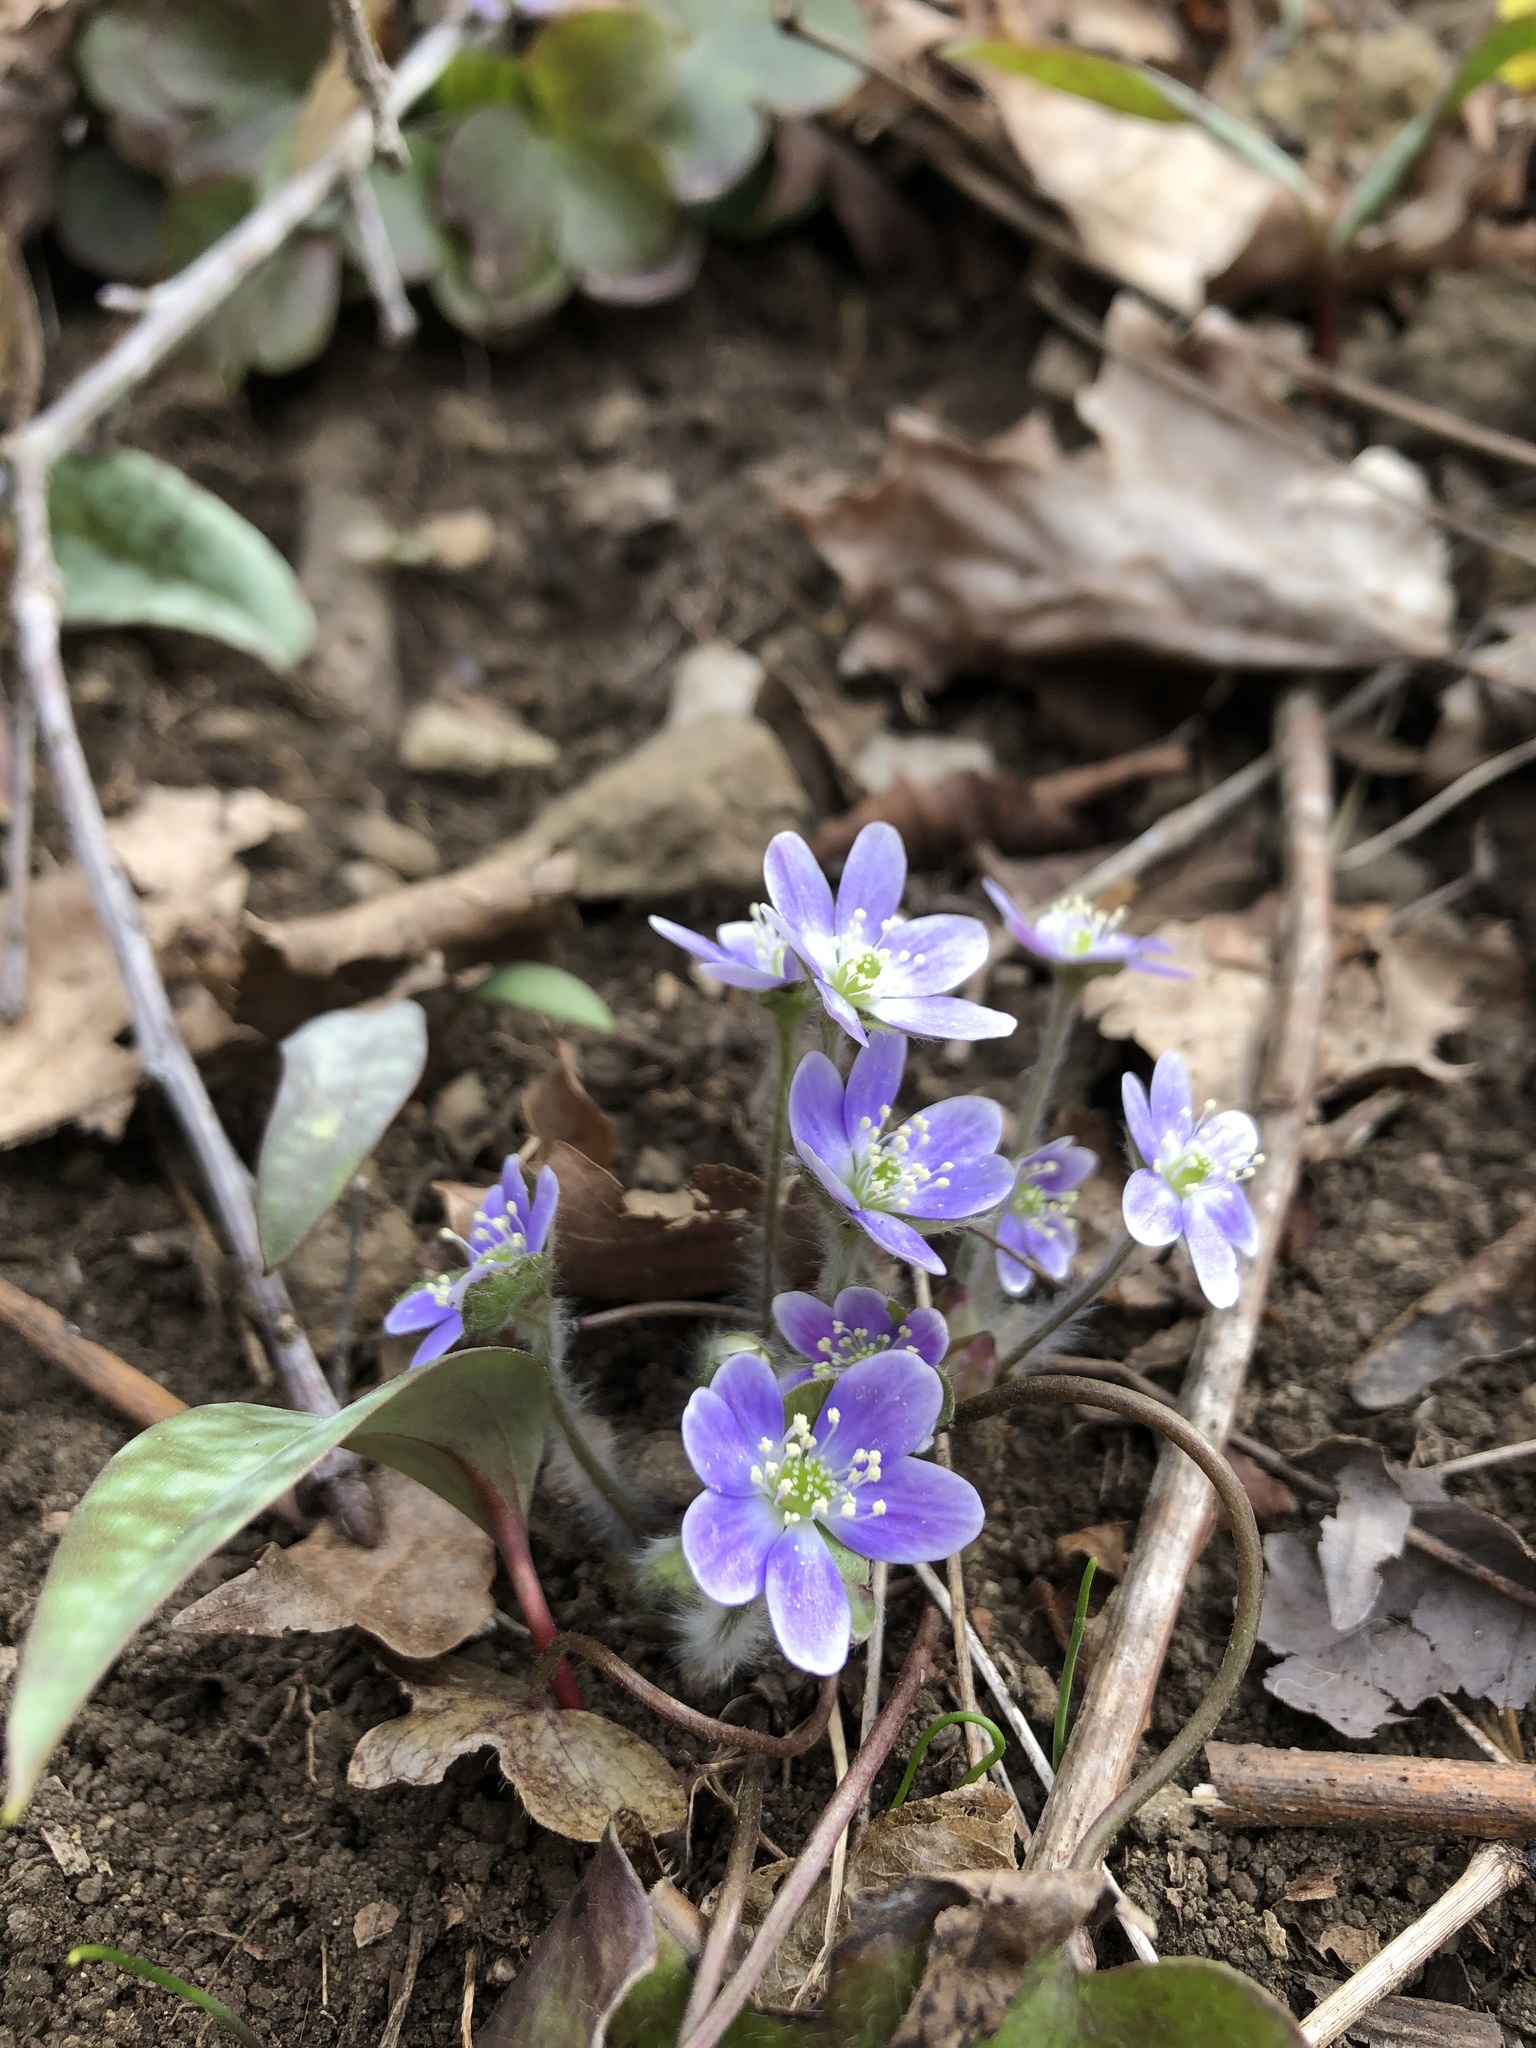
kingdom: Plantae
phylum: Tracheophyta
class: Magnoliopsida
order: Ranunculales
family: Ranunculaceae
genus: Hepatica
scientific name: Hepatica americana
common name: American hepatica
